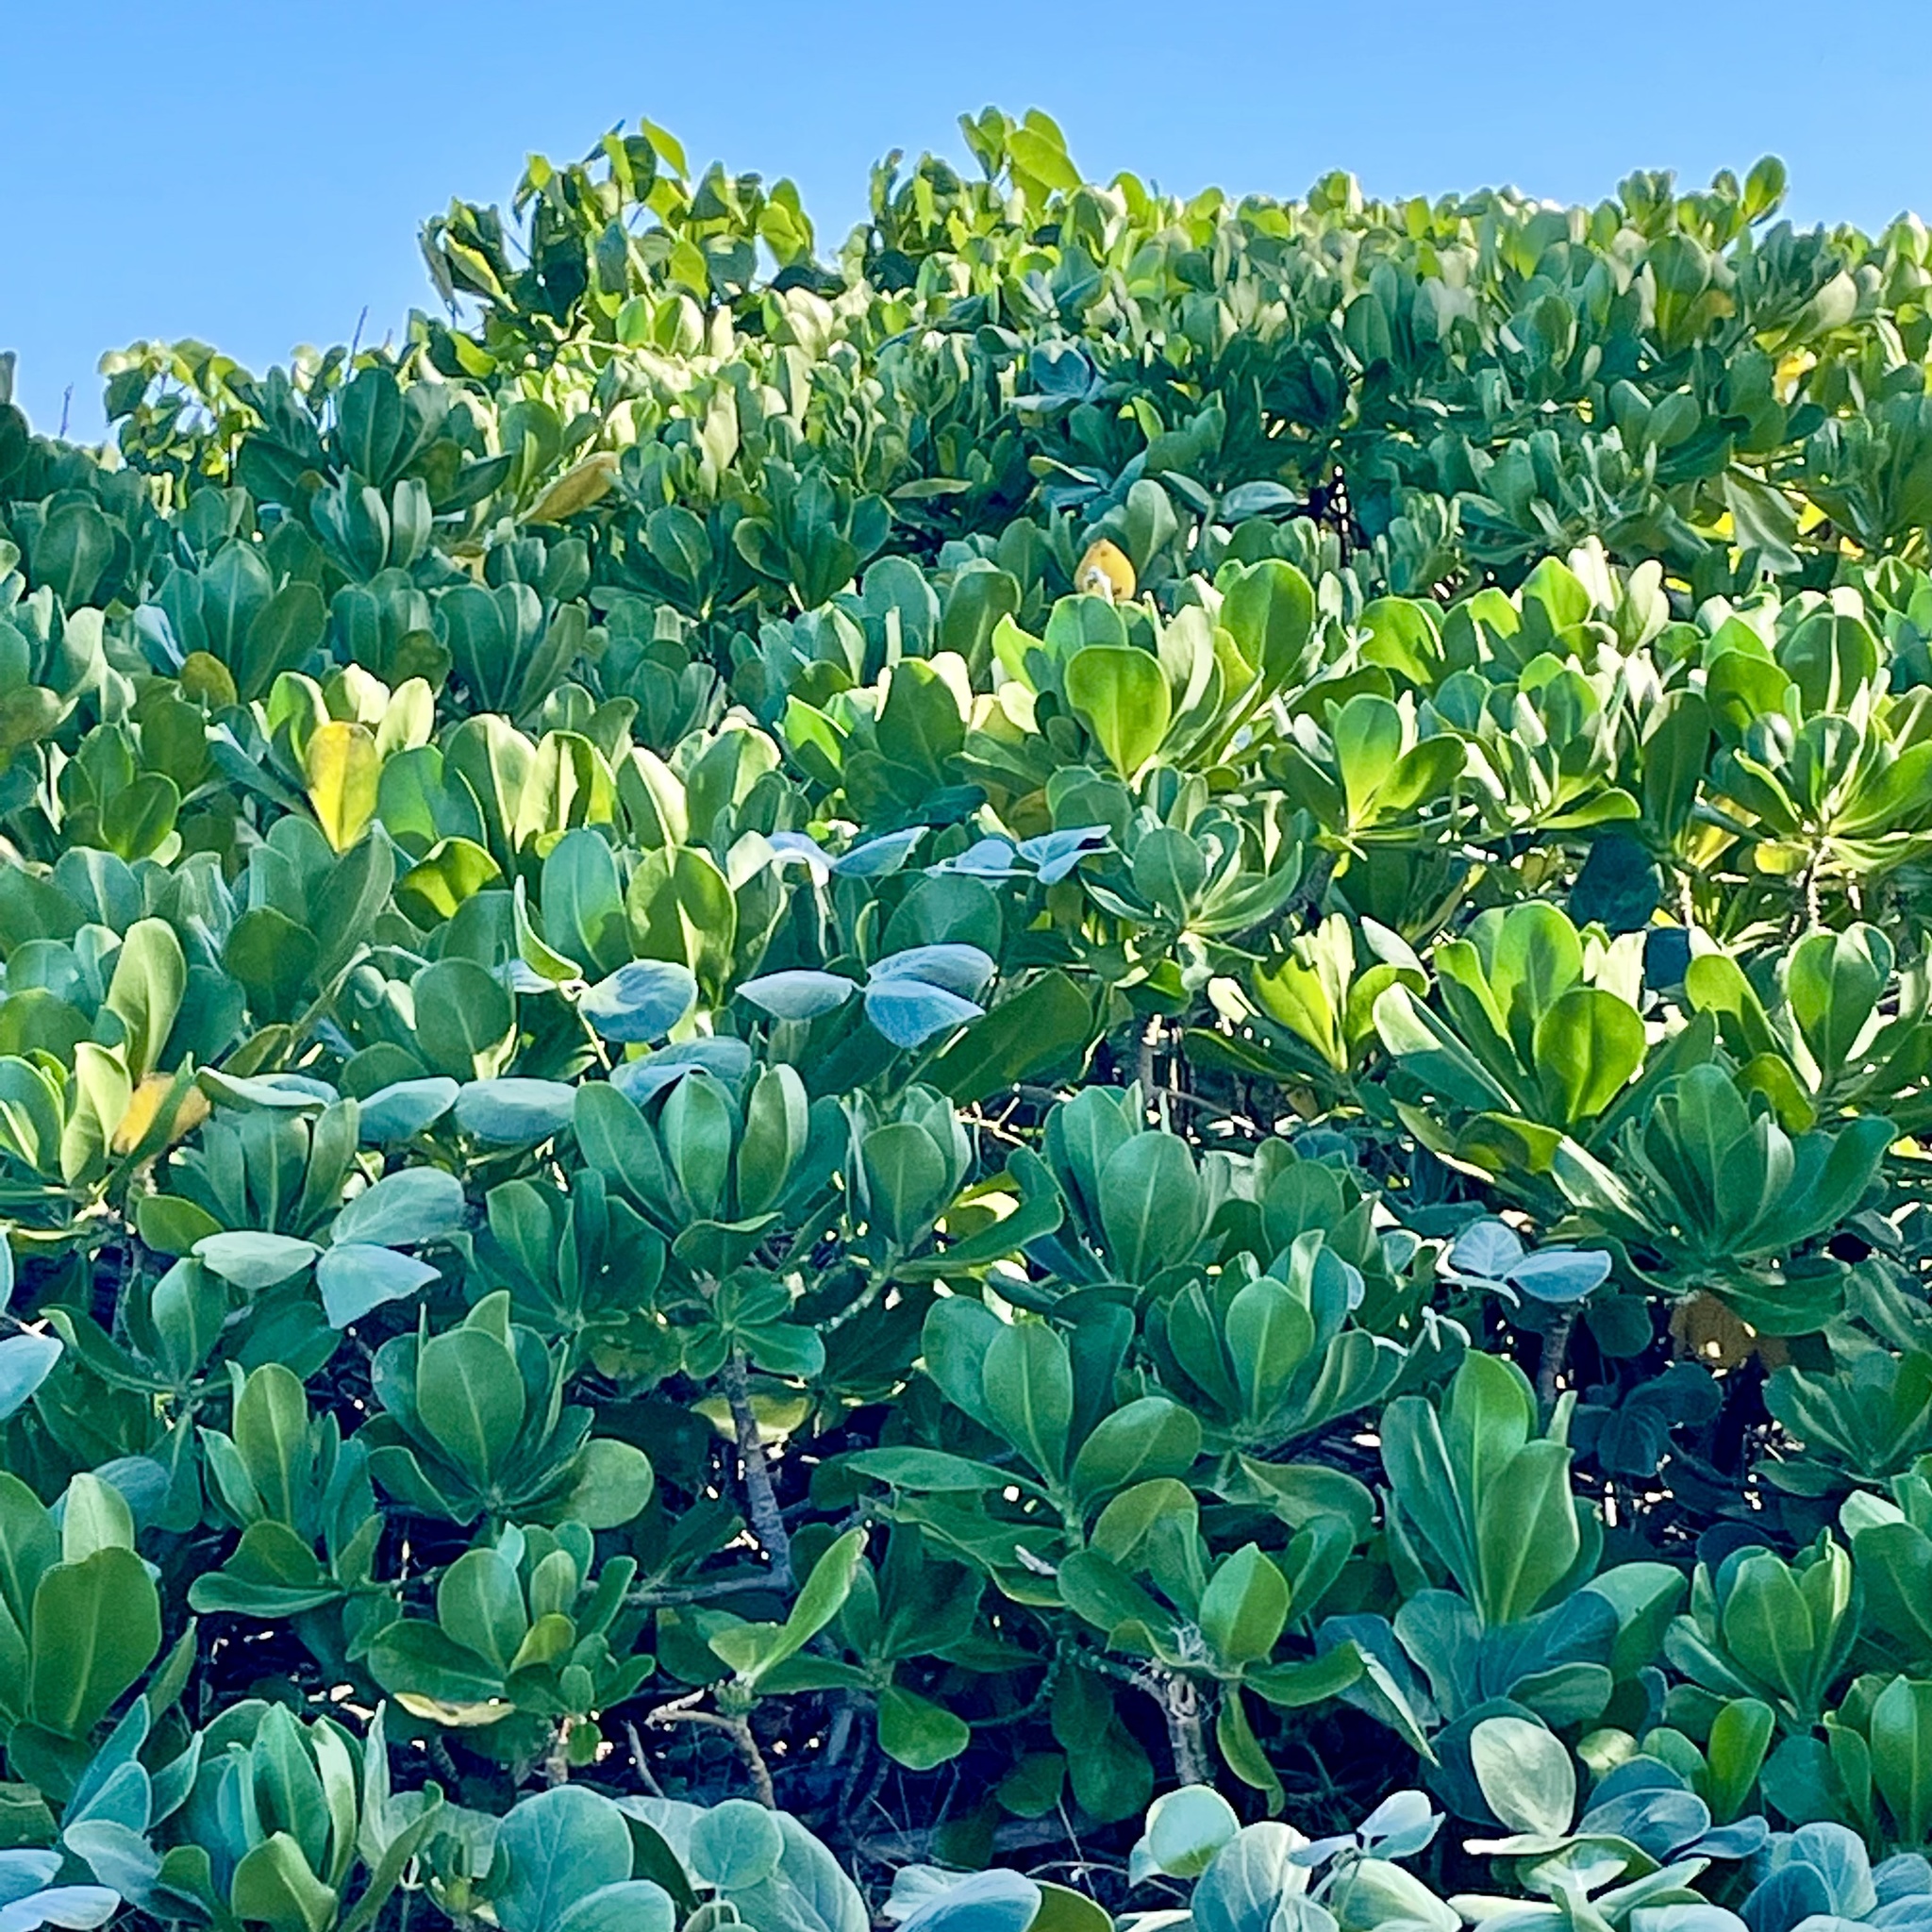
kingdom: Plantae
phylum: Tracheophyta
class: Magnoliopsida
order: Asterales
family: Goodeniaceae
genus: Scaevola
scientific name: Scaevola taccada
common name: Sea lettucetree
